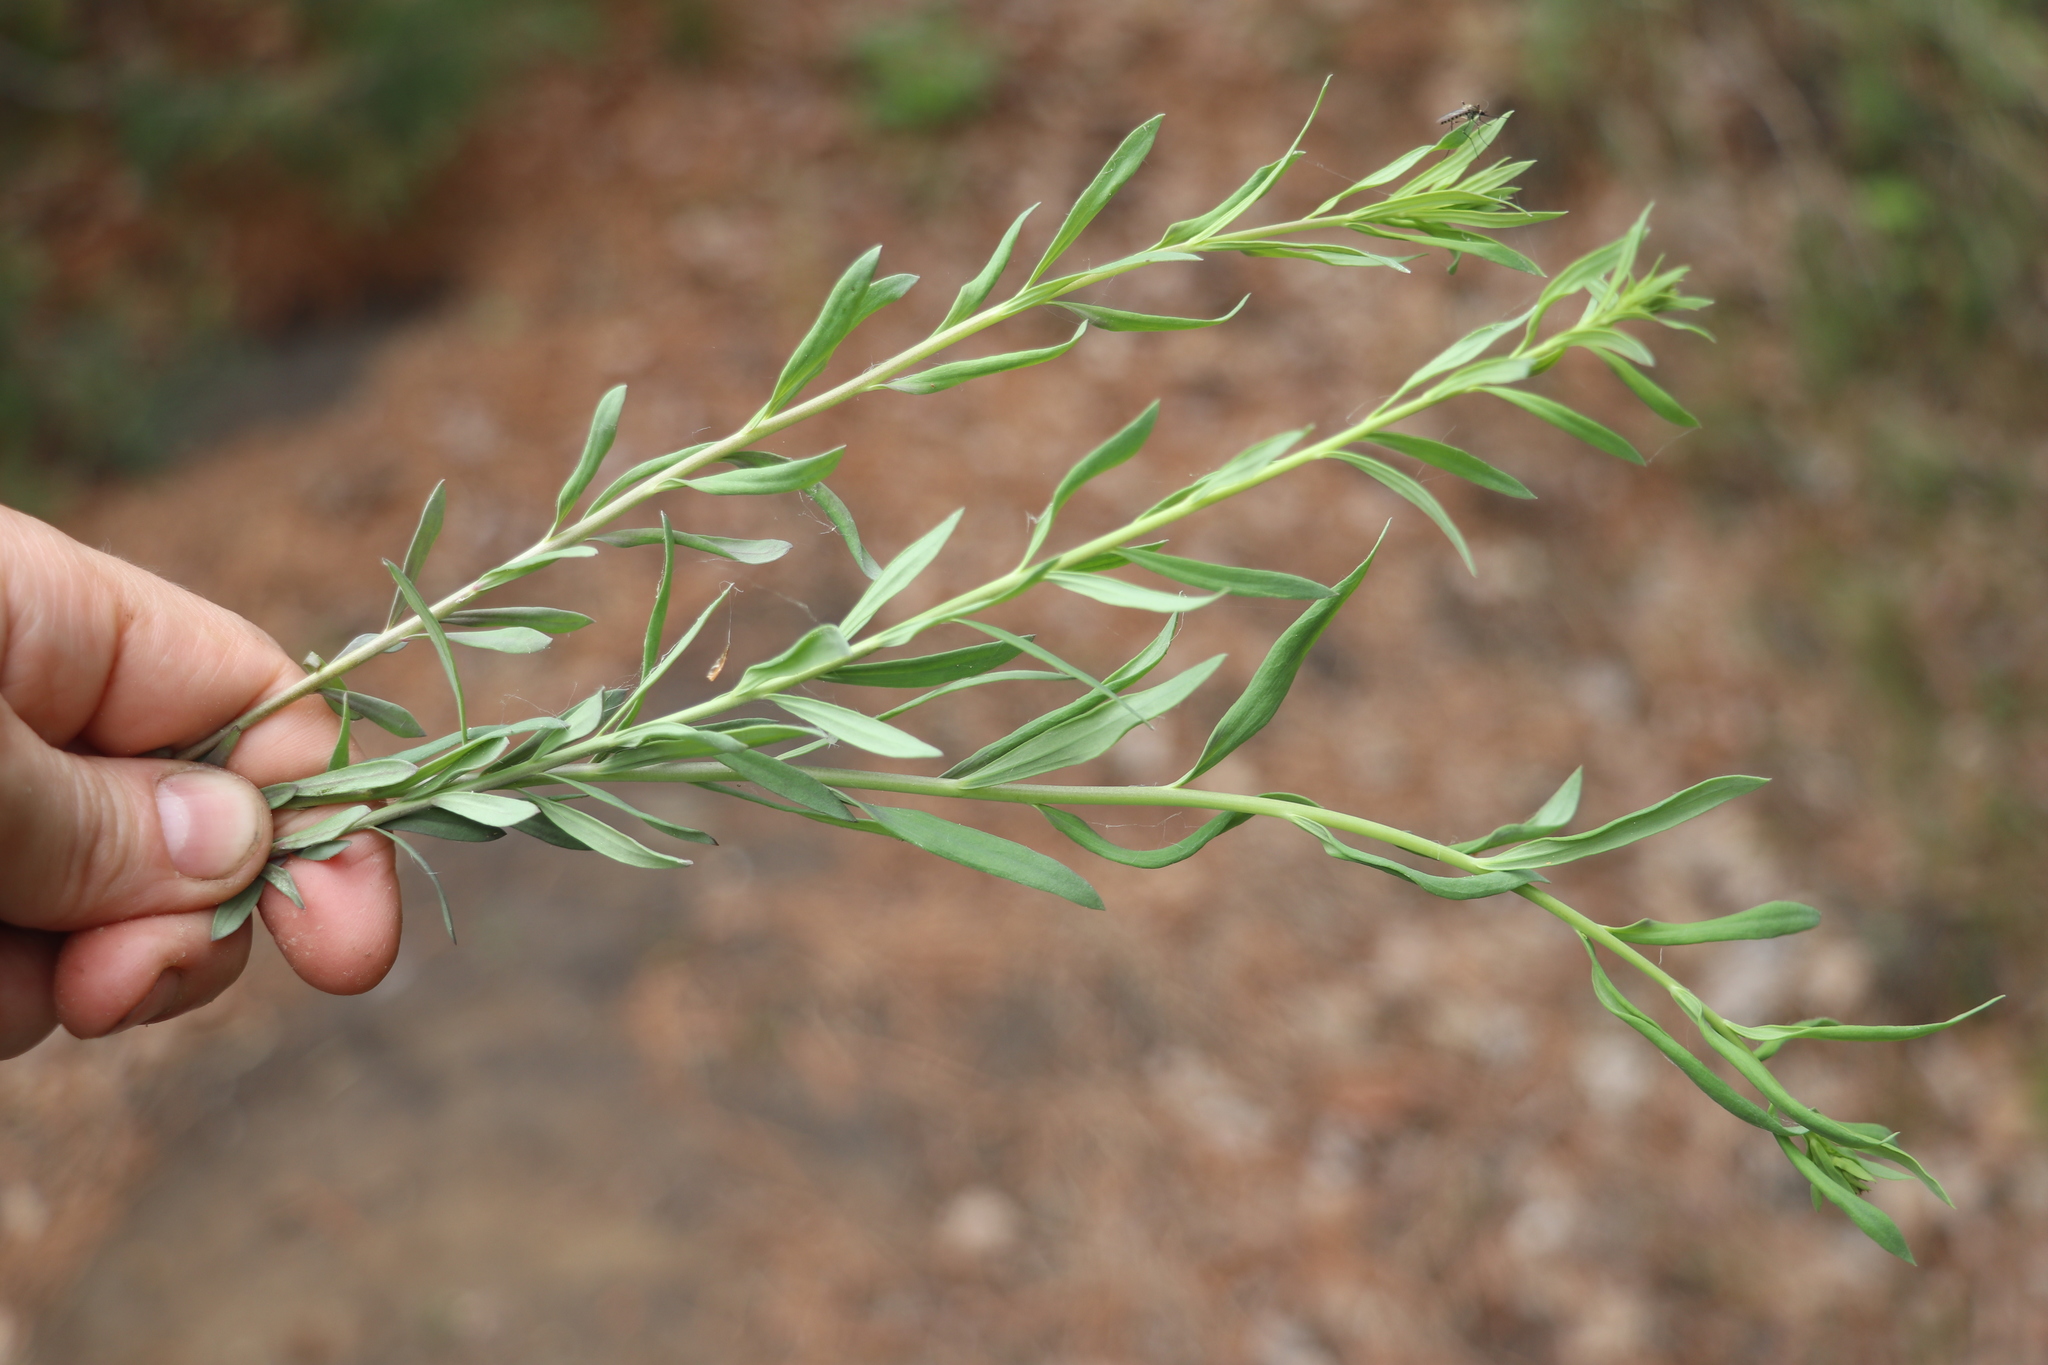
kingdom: Plantae
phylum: Tracheophyta
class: Magnoliopsida
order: Lamiales
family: Plantaginaceae
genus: Linaria
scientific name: Linaria vulgaris
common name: Butter and eggs
